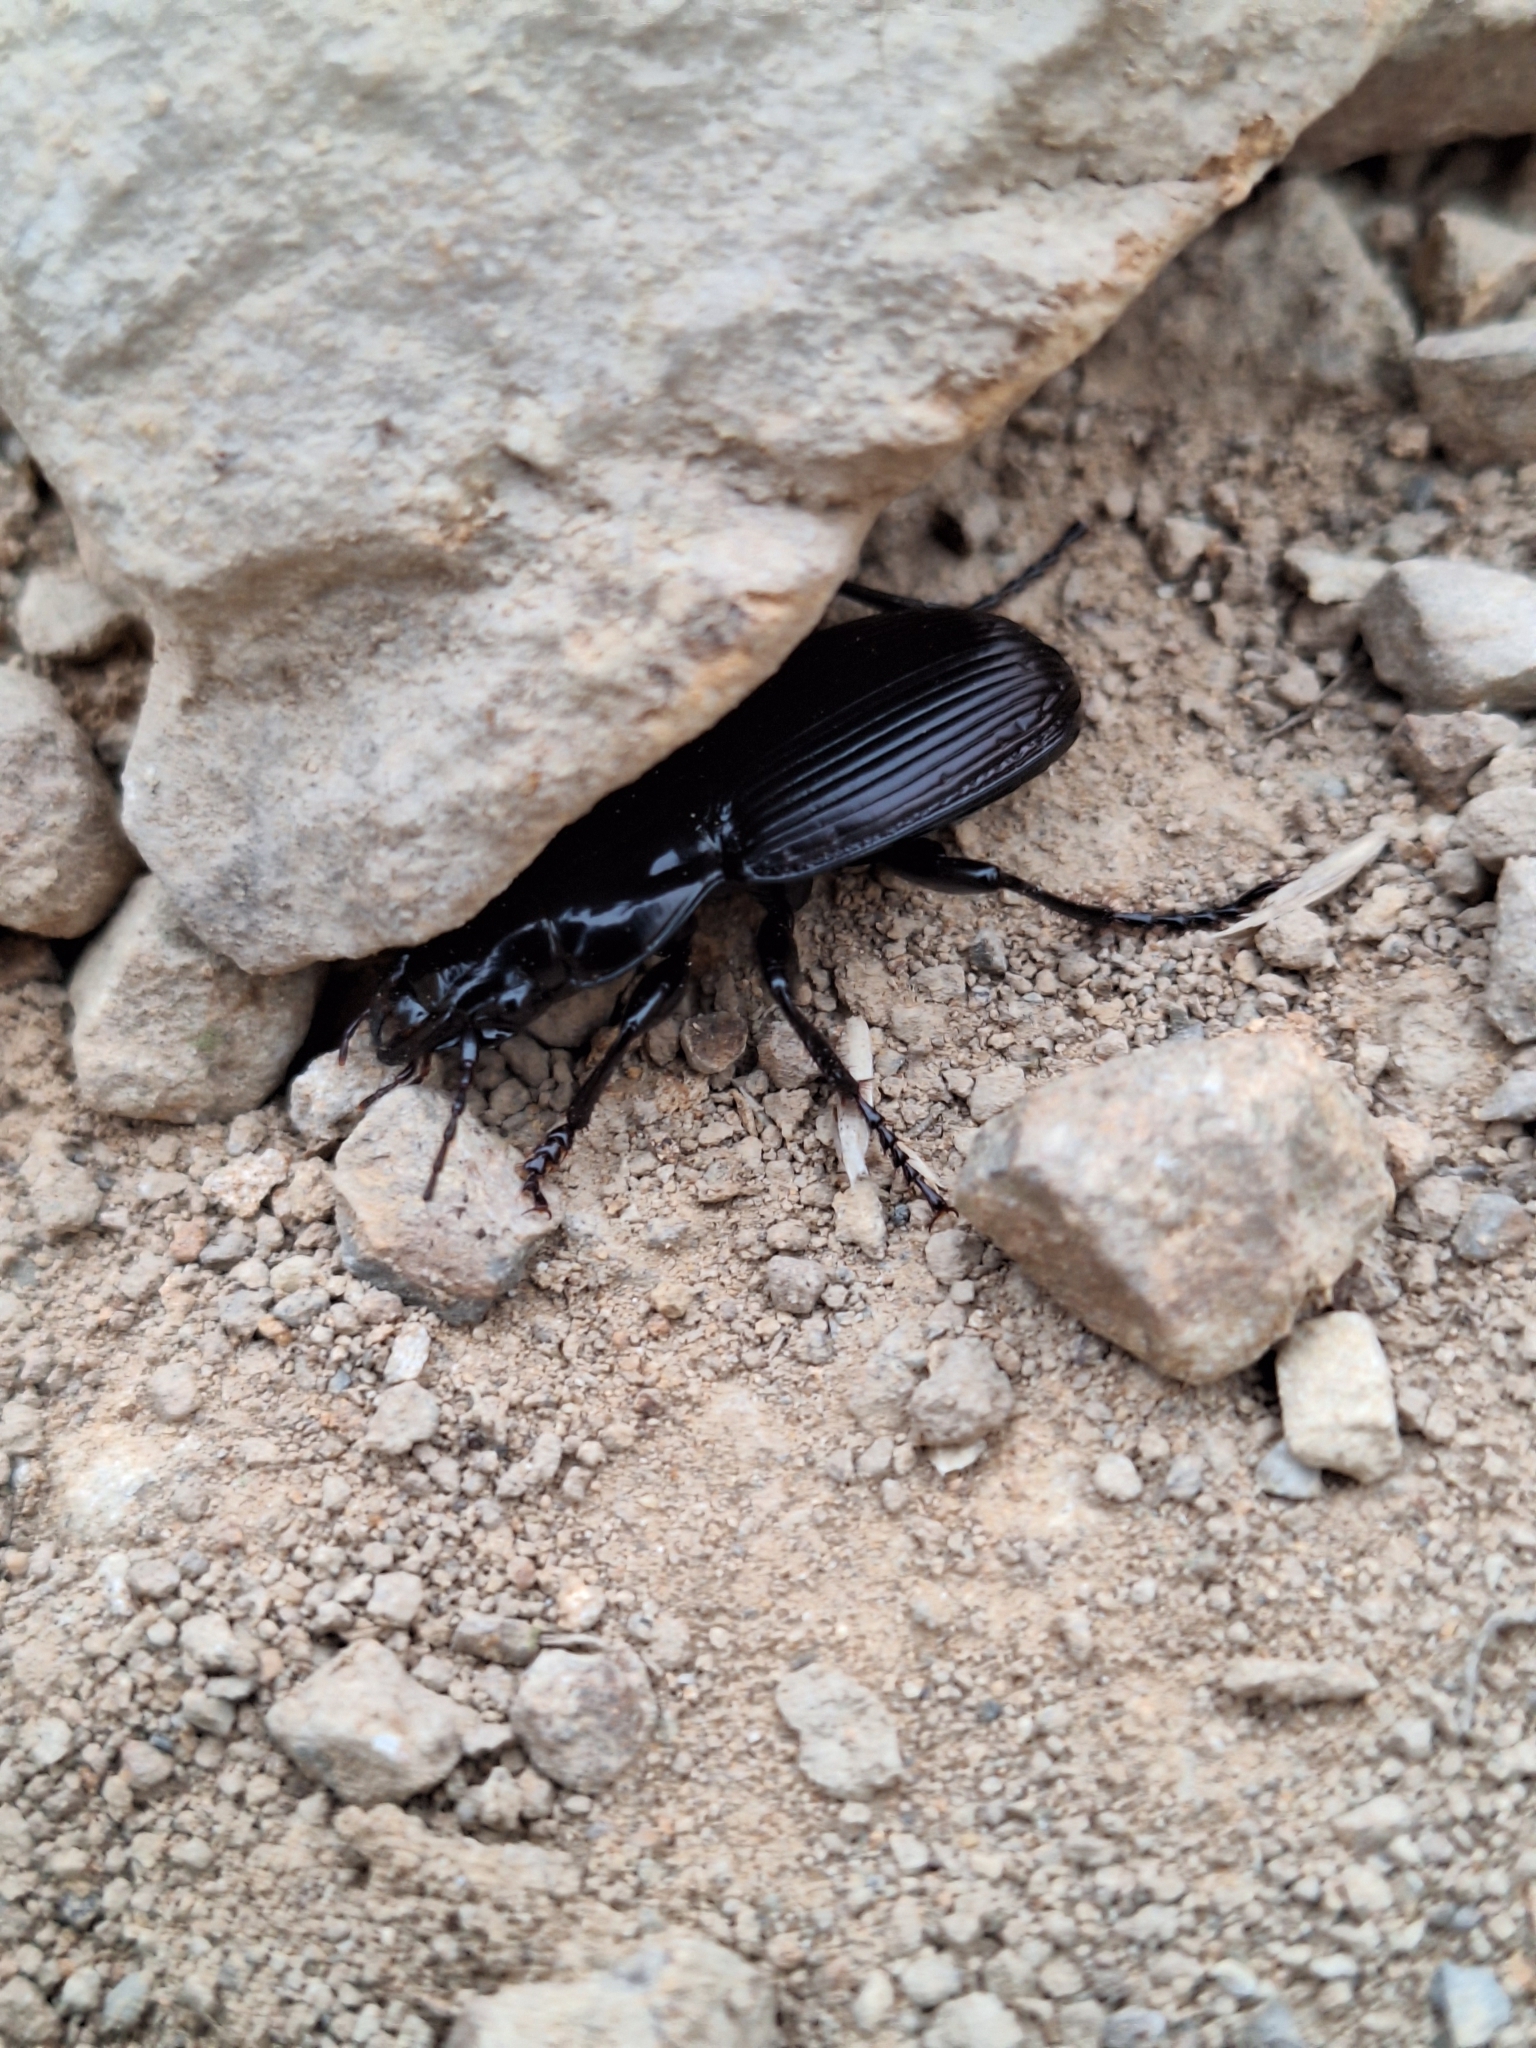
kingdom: Animalia
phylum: Arthropoda
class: Insecta
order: Coleoptera
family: Carabidae
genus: Megadromus
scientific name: Megadromus vigil
